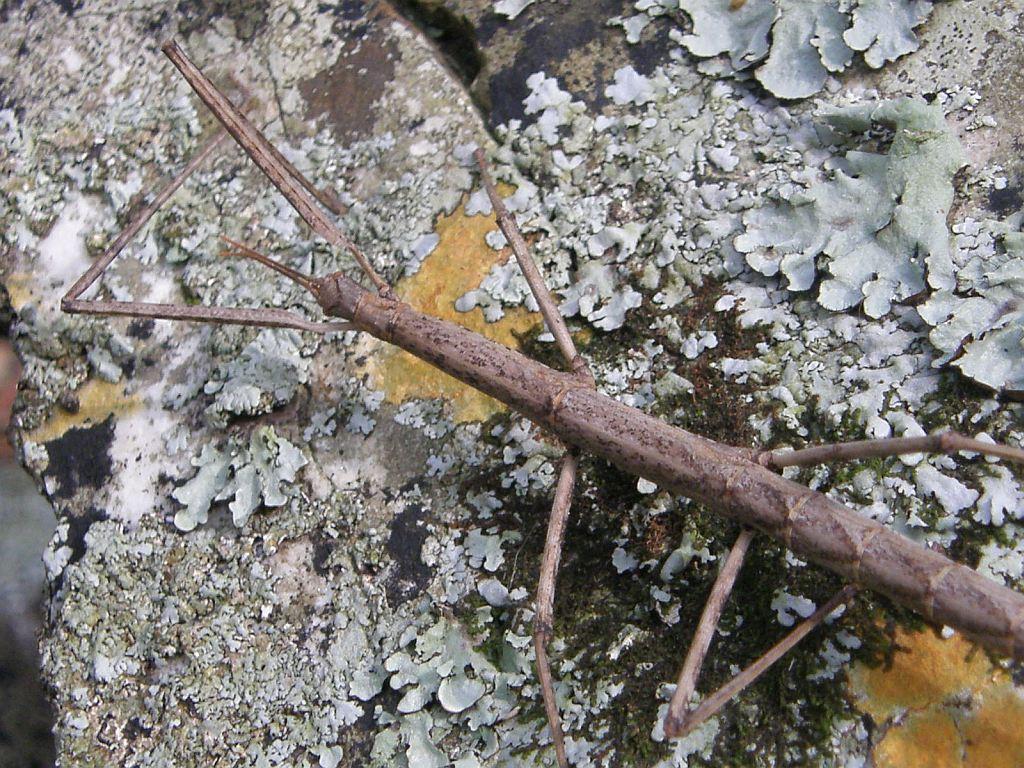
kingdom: Animalia
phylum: Arthropoda
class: Insecta
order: Phasmida
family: Bacillidae
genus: Phalces
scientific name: Phalces brevis
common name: Cape stick insect
